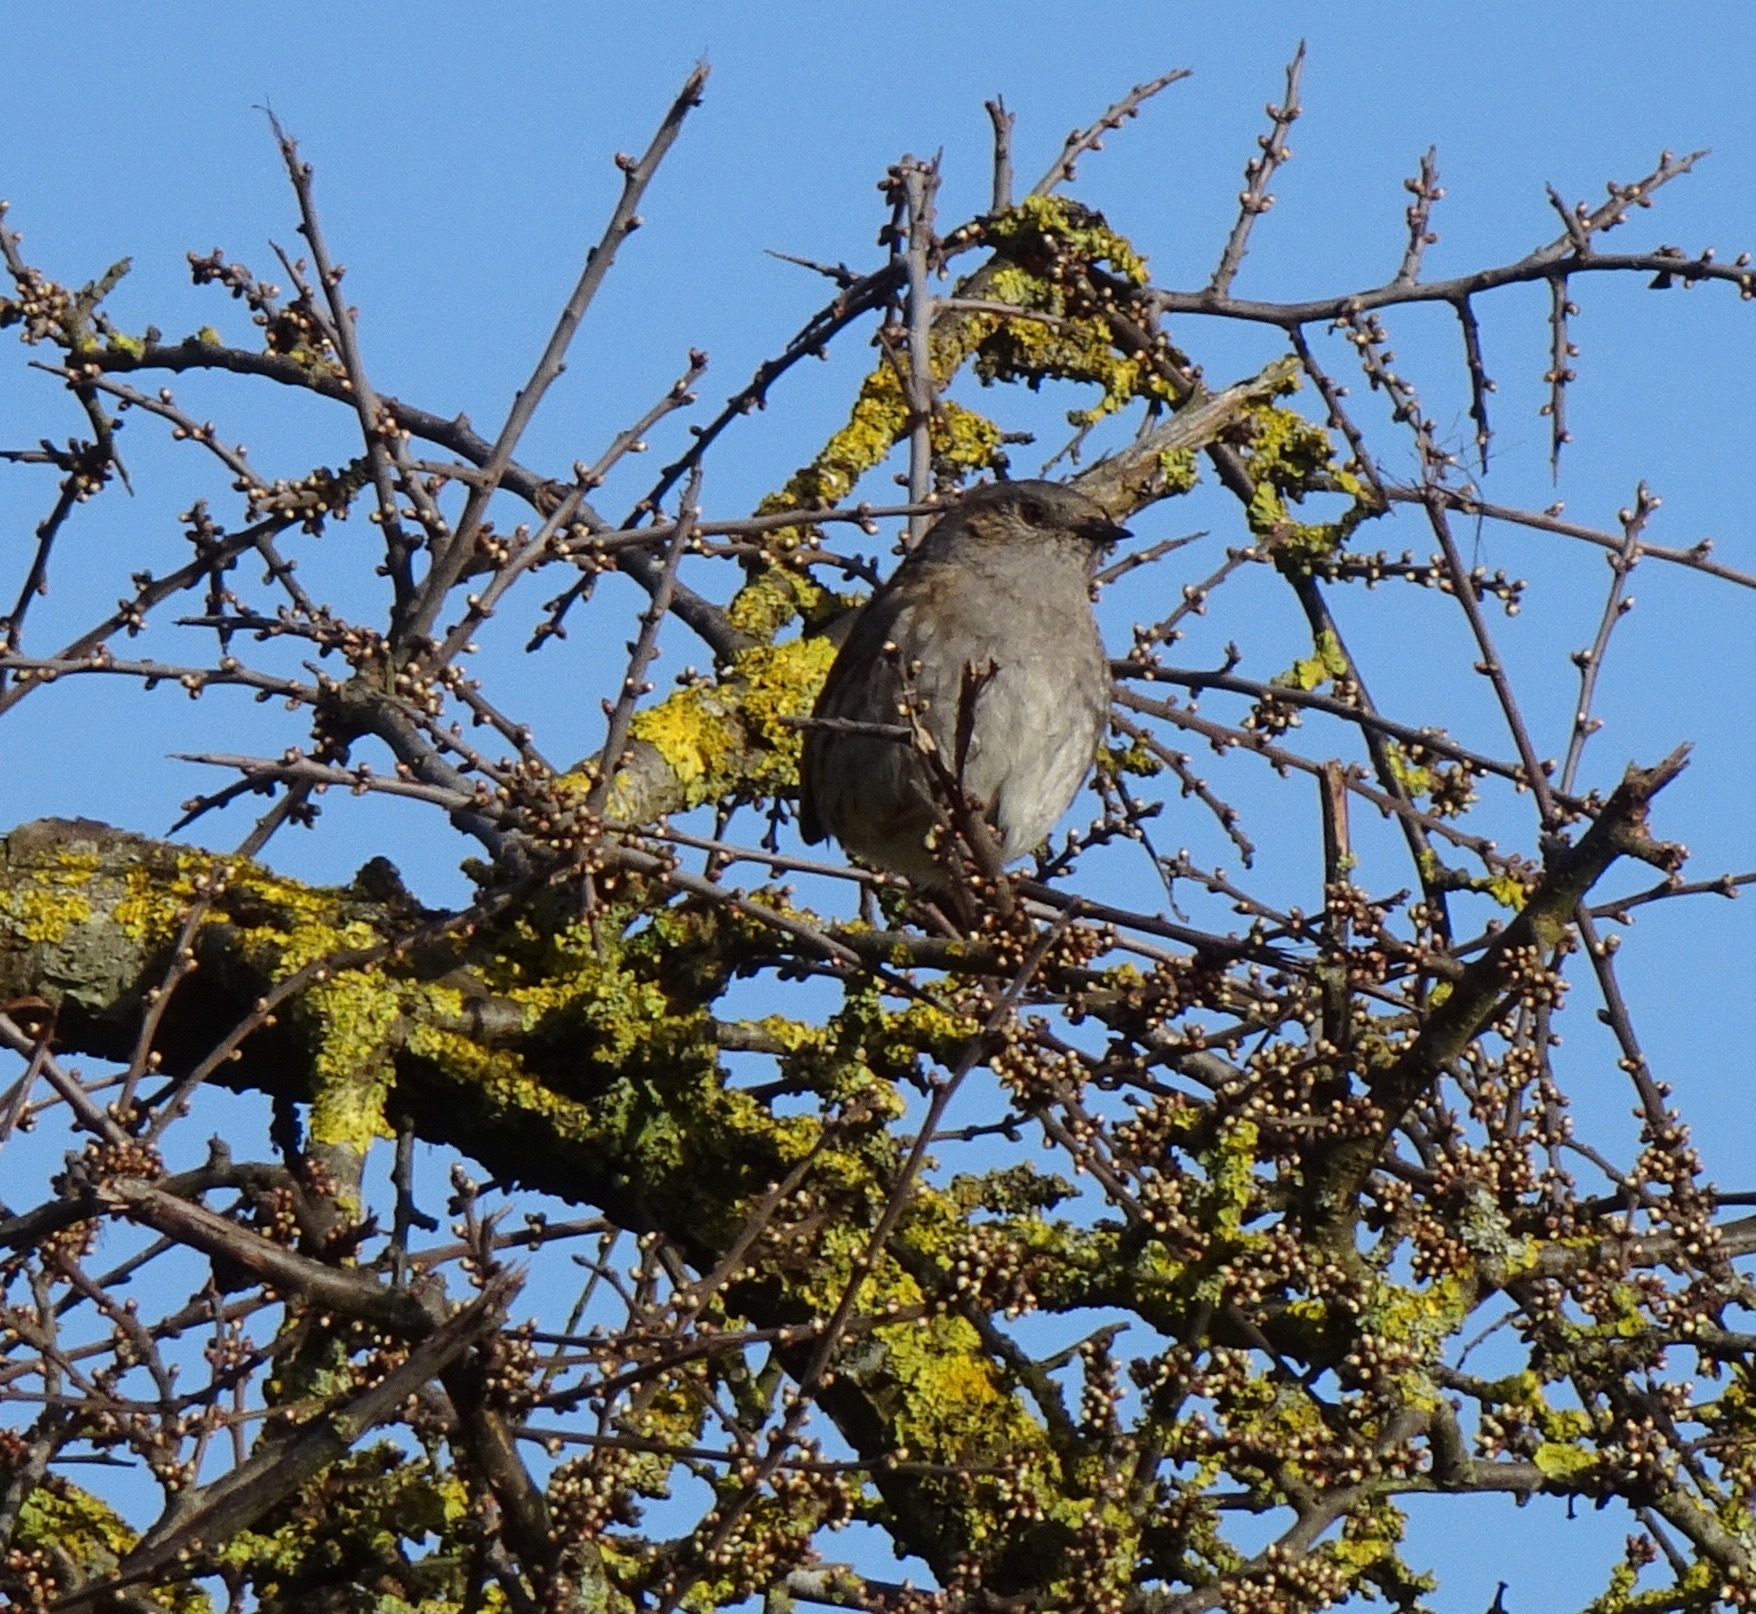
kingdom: Animalia
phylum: Chordata
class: Aves
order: Passeriformes
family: Prunellidae
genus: Prunella
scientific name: Prunella modularis
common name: Dunnock
